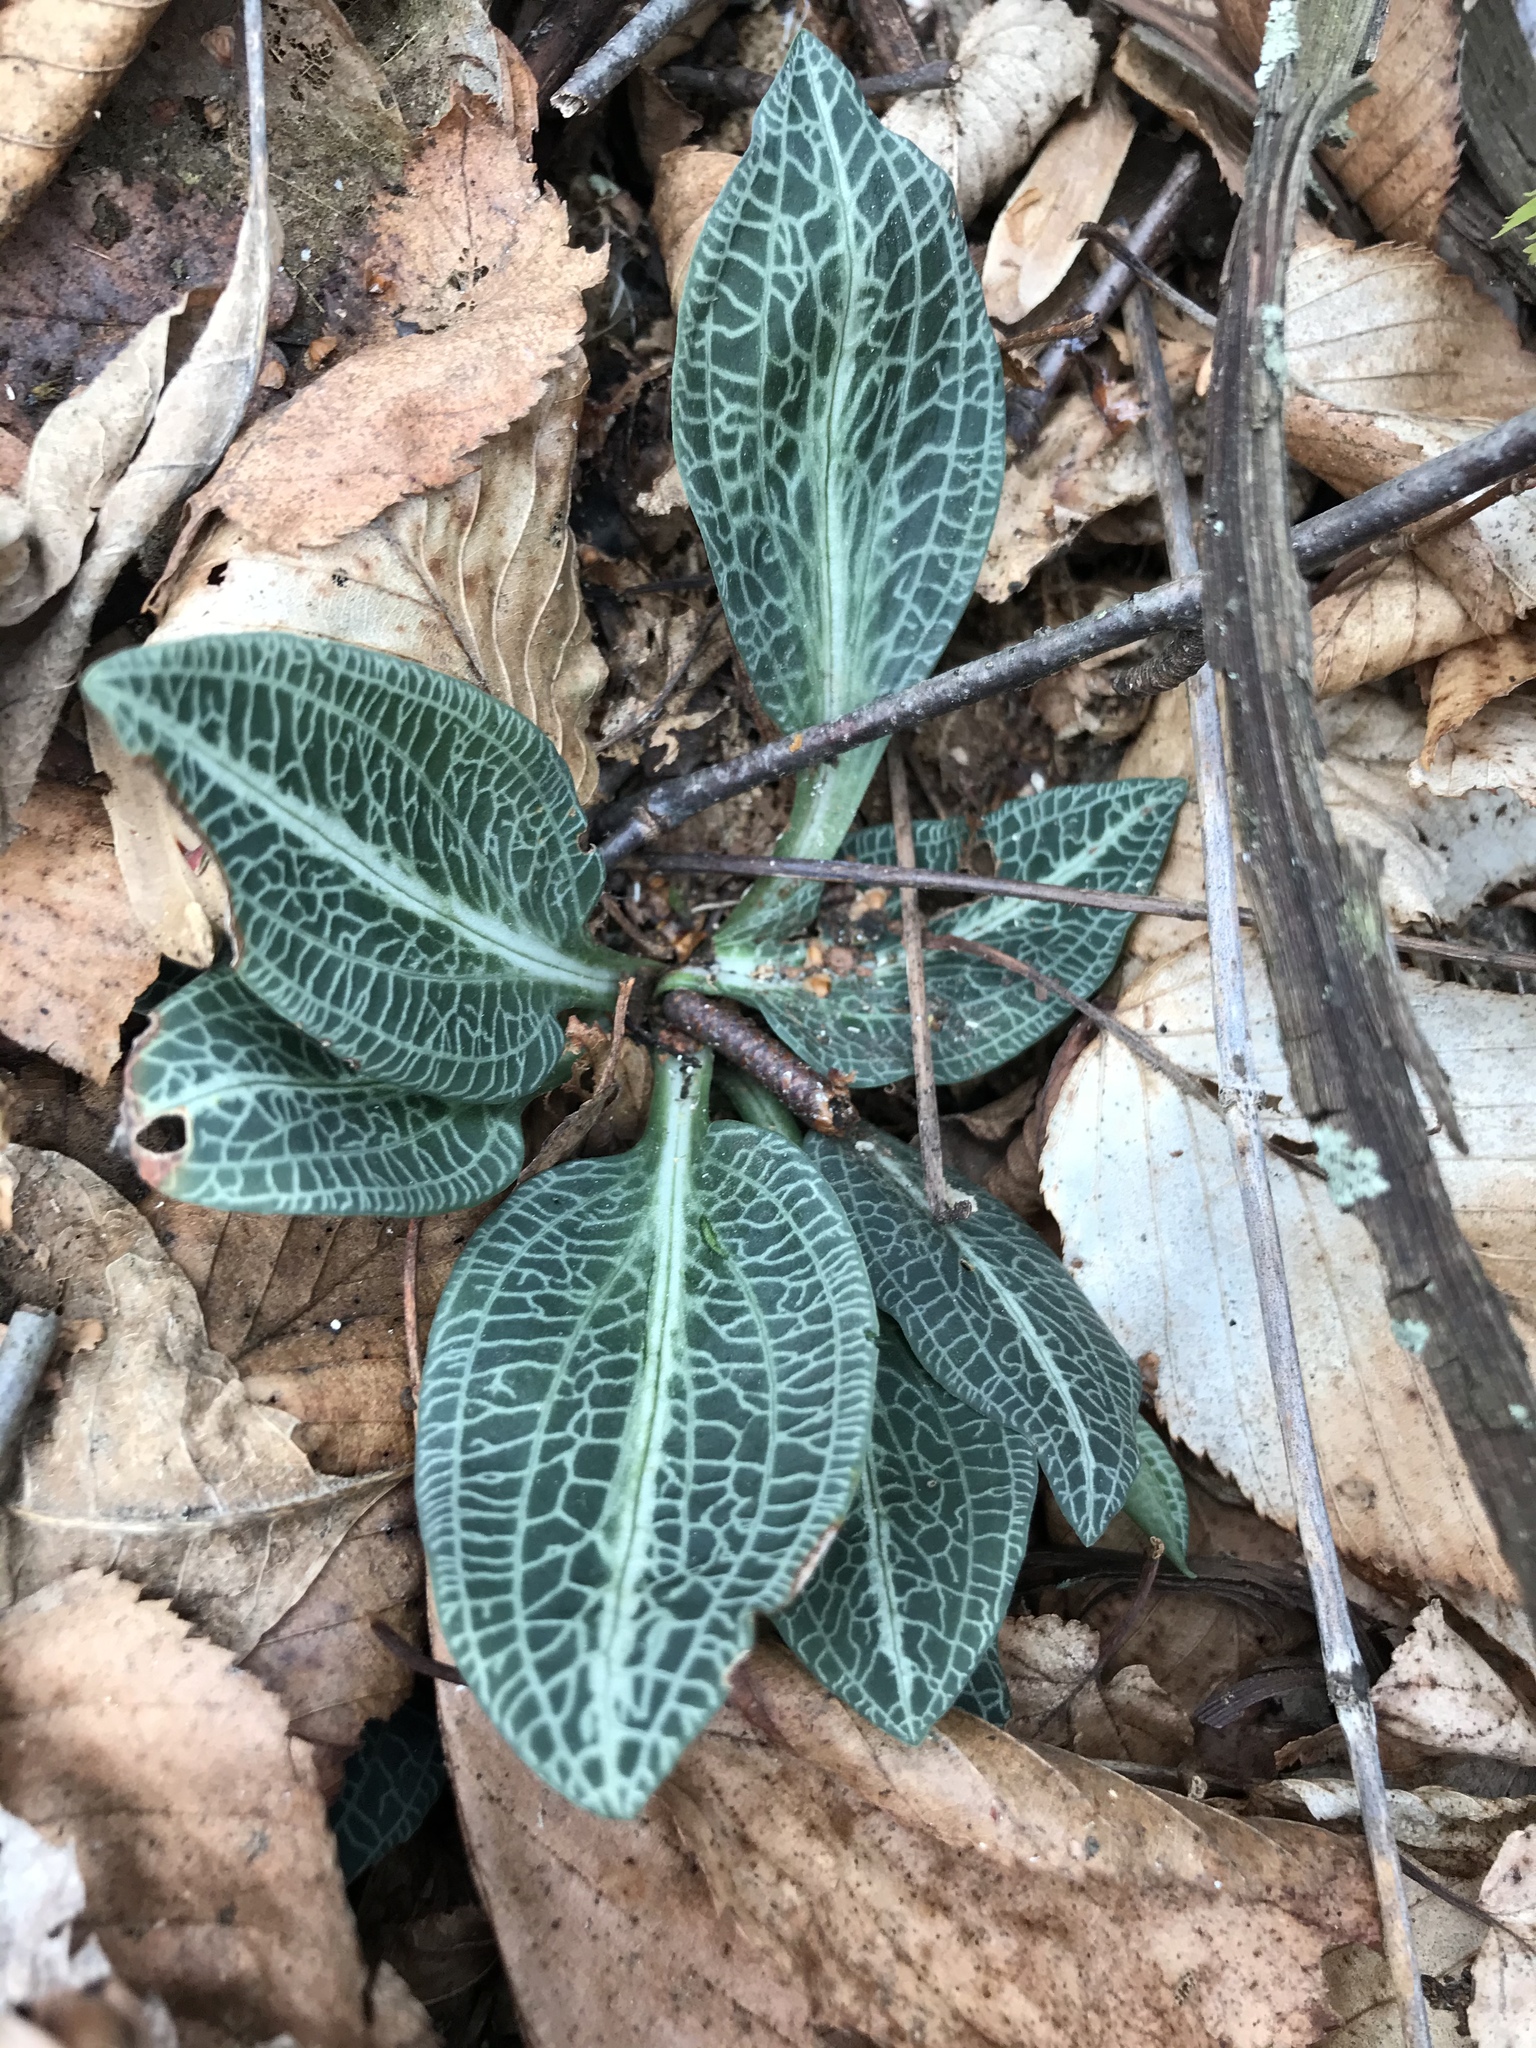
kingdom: Plantae
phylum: Tracheophyta
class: Liliopsida
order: Asparagales
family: Orchidaceae
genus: Goodyera
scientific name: Goodyera pubescens
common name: Downy rattlesnake-plantain
